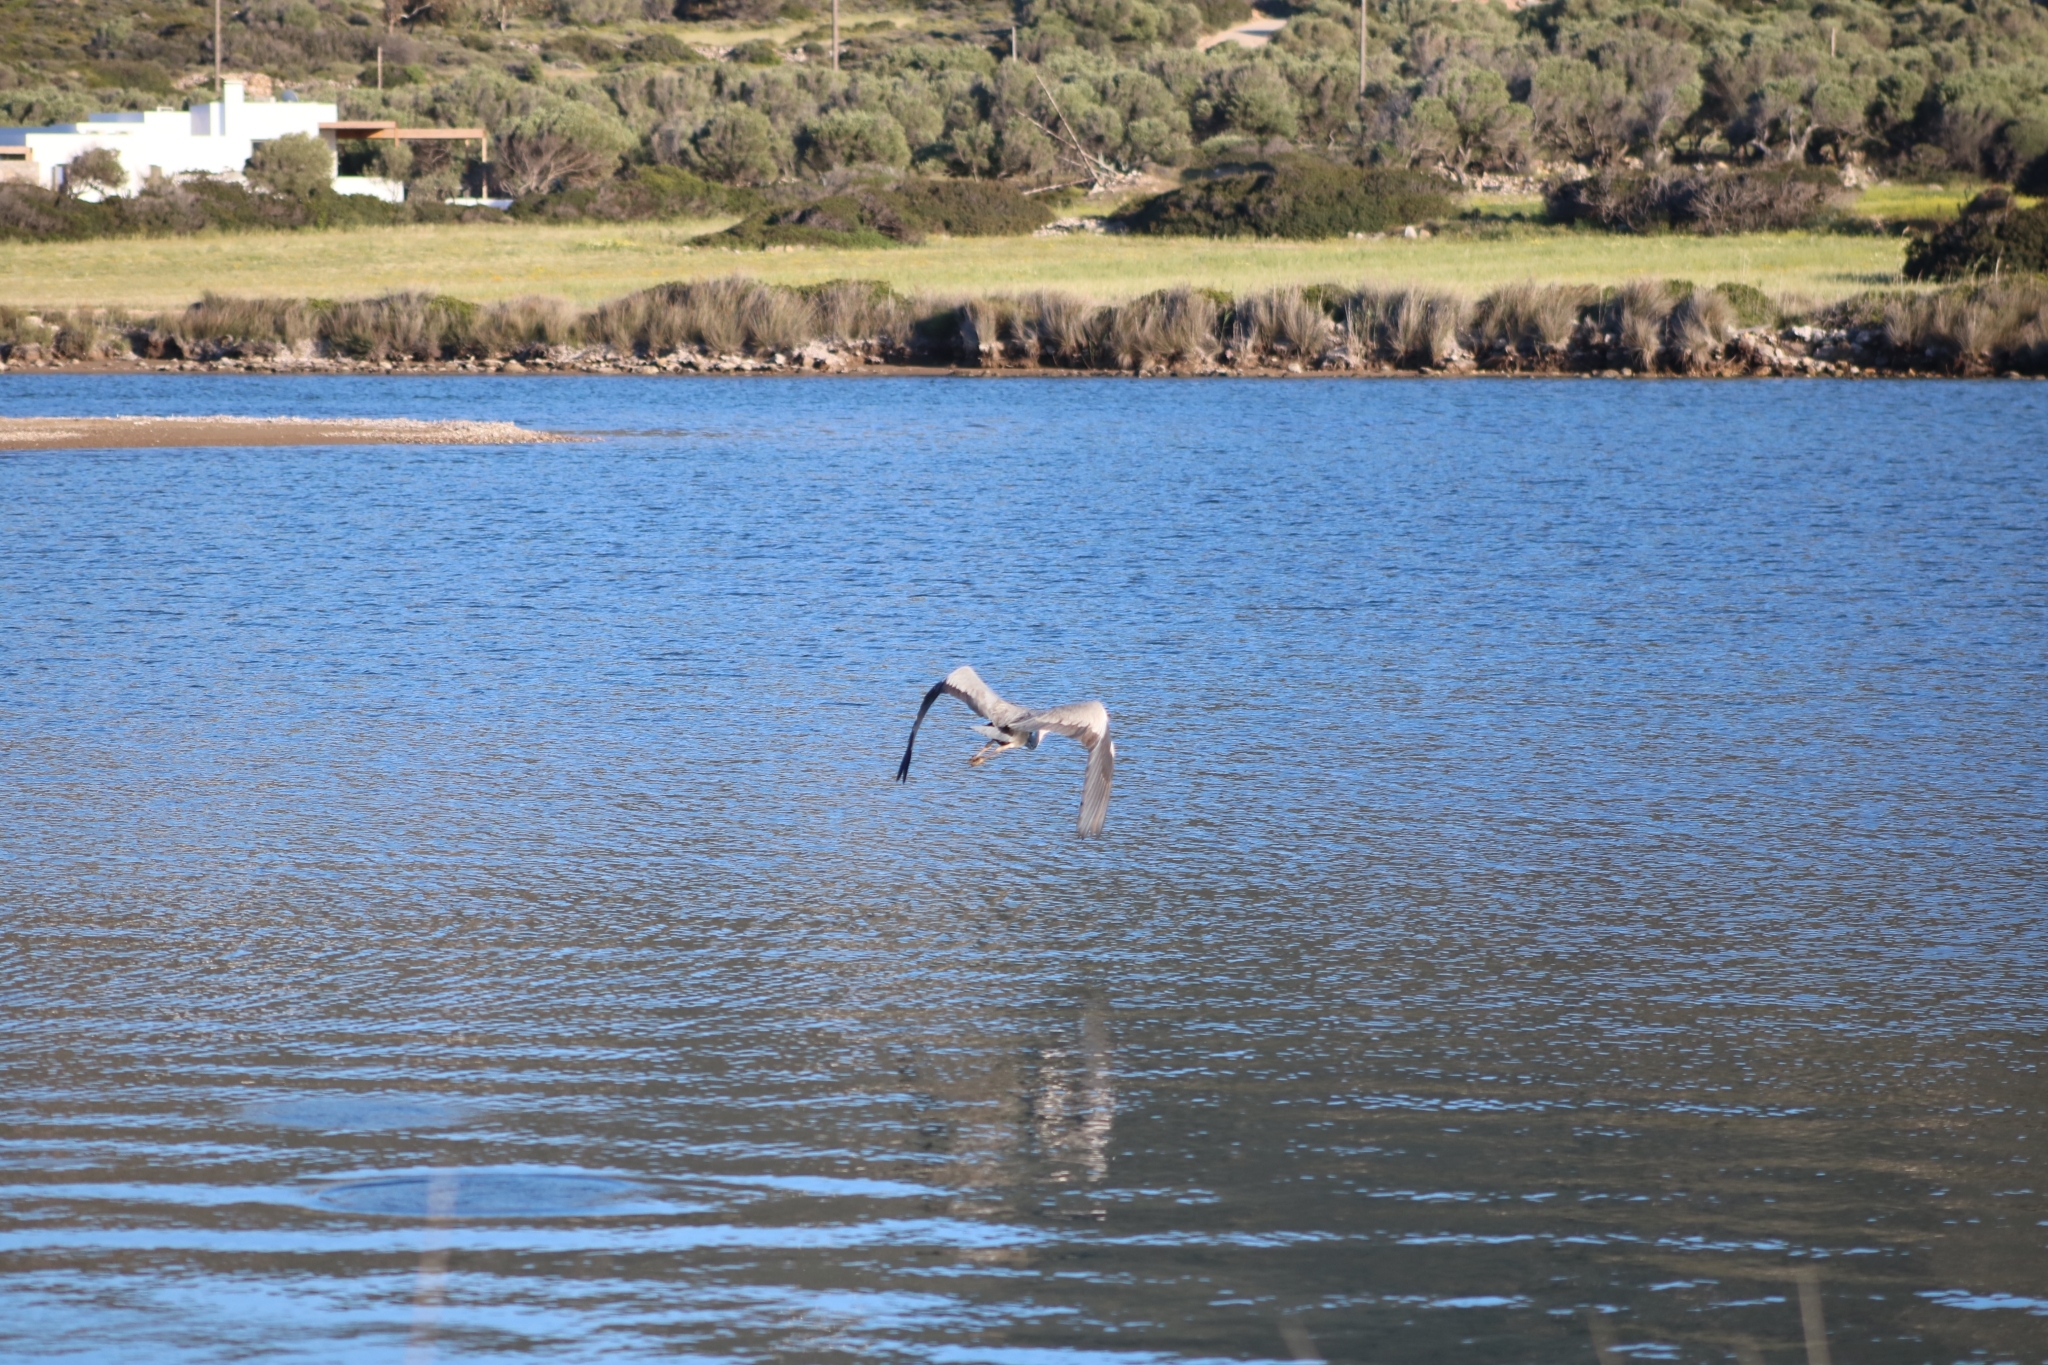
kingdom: Animalia
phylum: Chordata
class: Aves
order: Pelecaniformes
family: Ardeidae
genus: Ardea
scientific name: Ardea cinerea
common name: Grey heron
